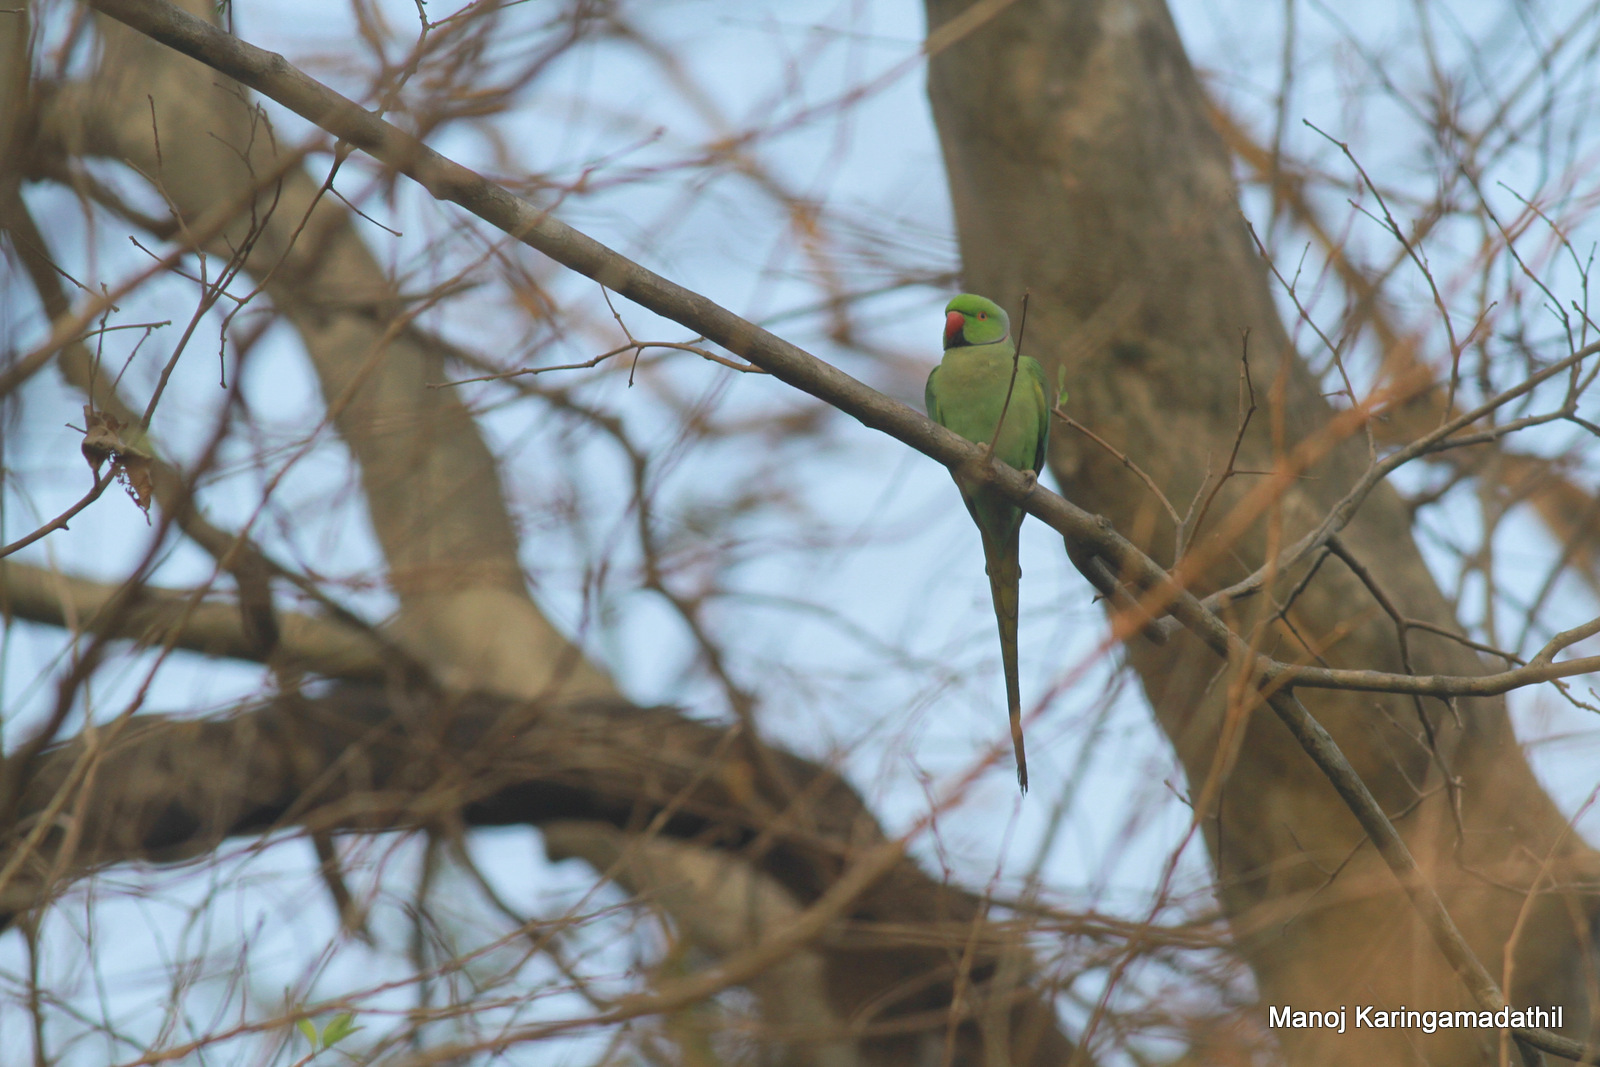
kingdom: Animalia
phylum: Chordata
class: Aves
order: Psittaciformes
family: Psittacidae
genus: Psittacula
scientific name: Psittacula krameri
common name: Rose-ringed parakeet
